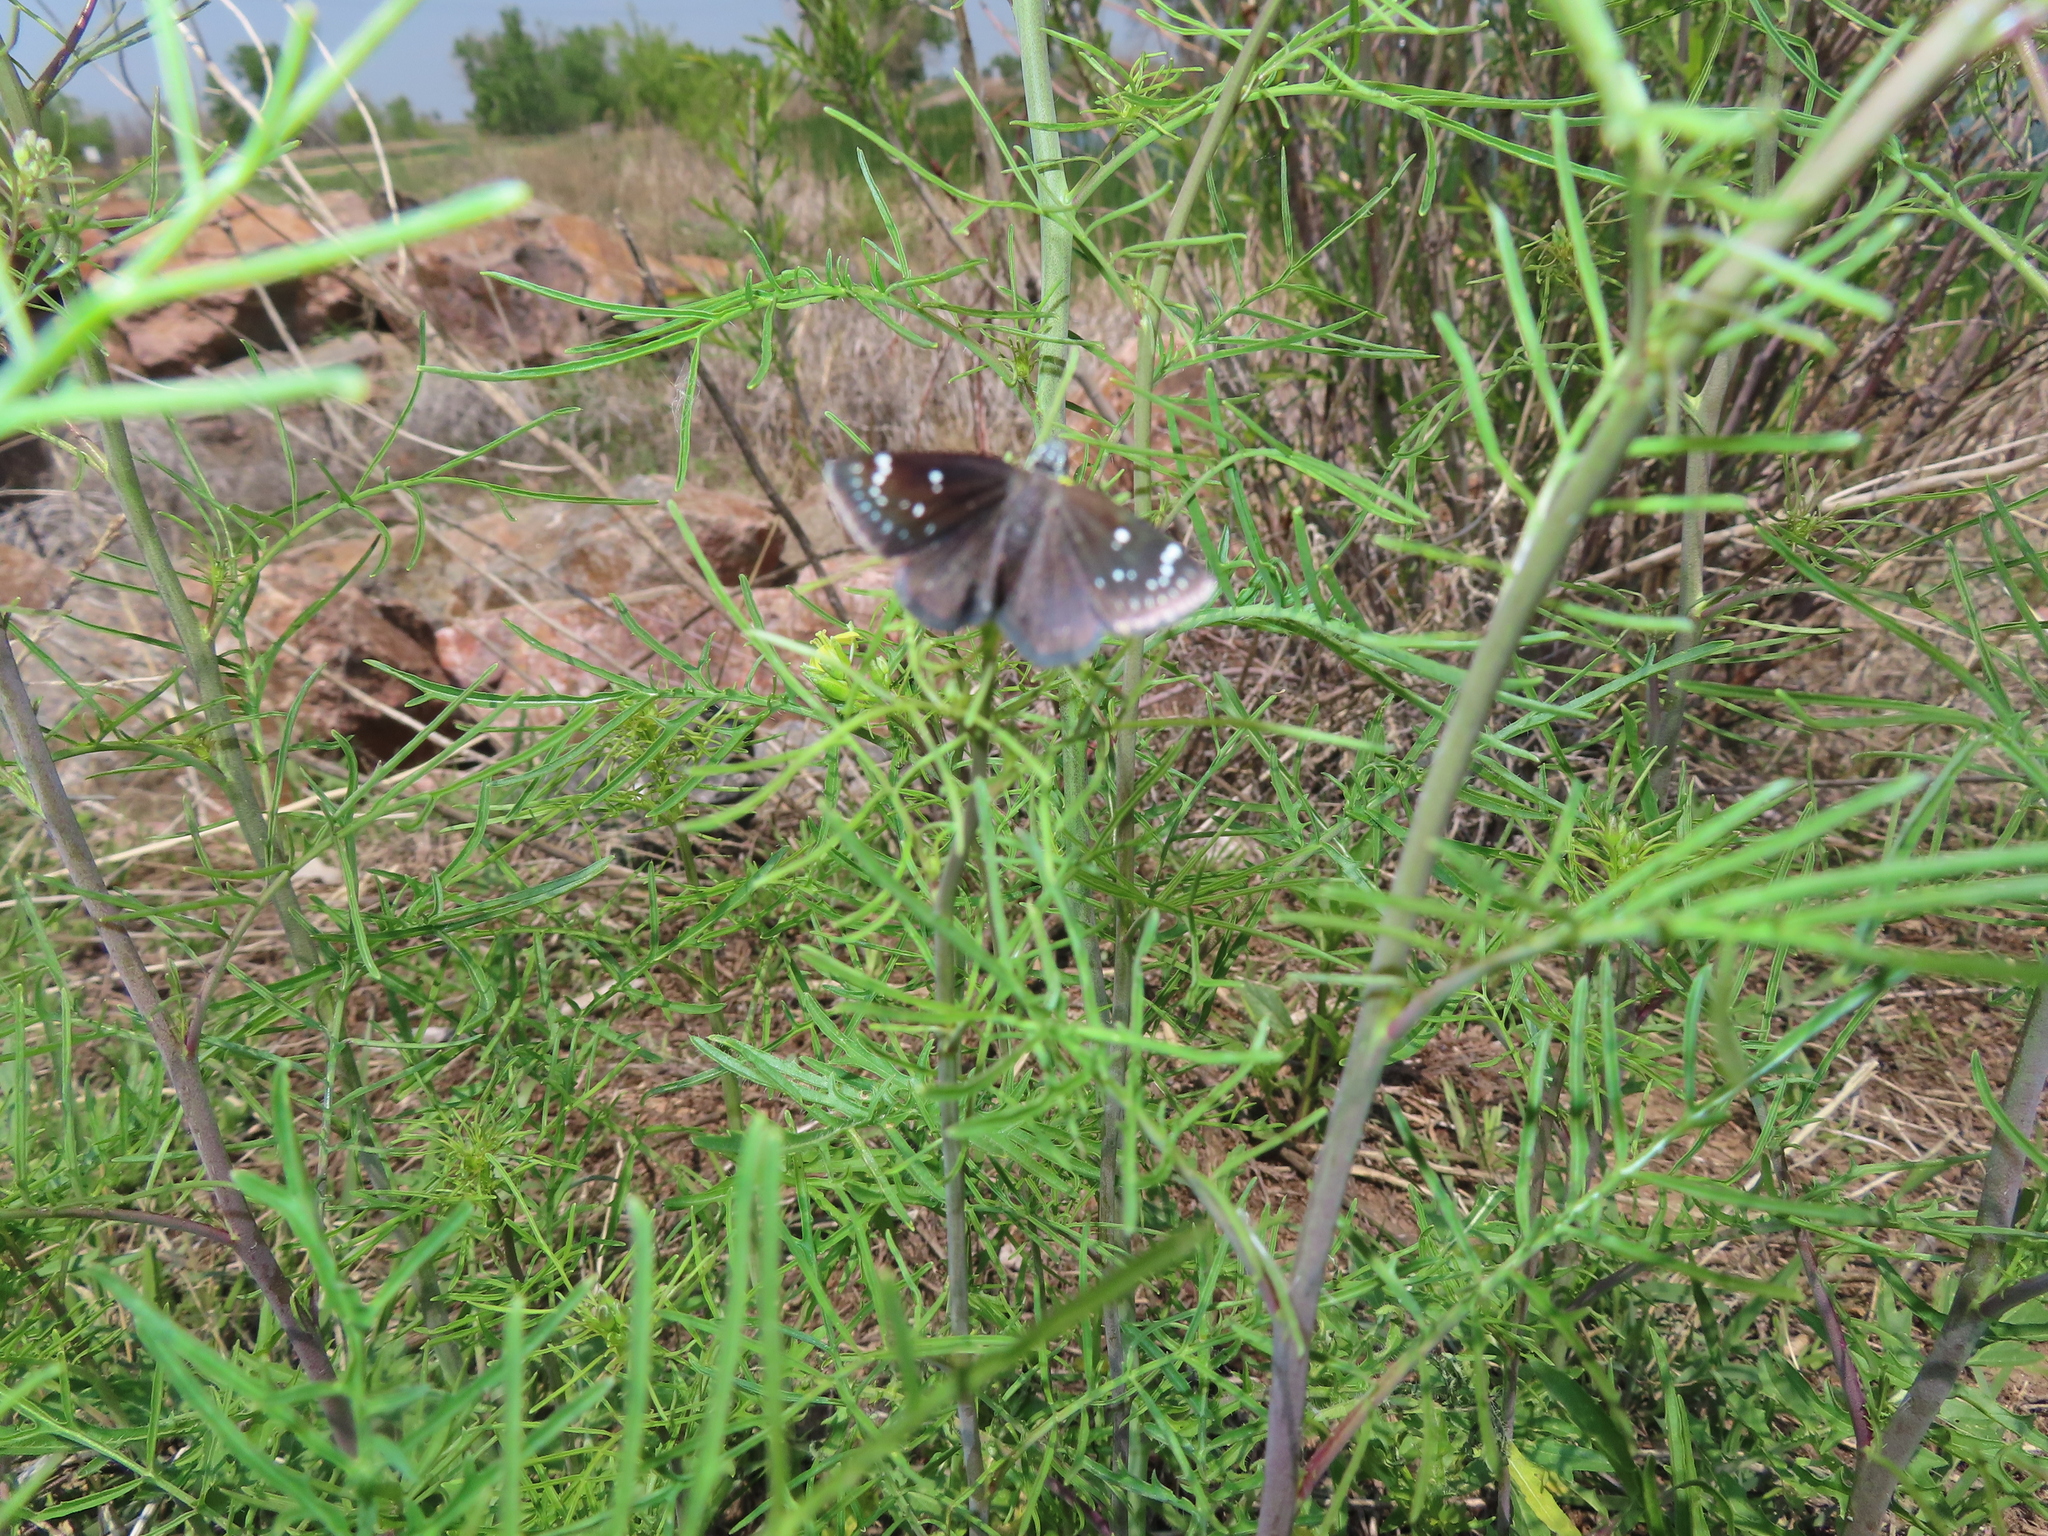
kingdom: Animalia
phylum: Arthropoda
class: Insecta
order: Lepidoptera
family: Hesperiidae
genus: Pholisora
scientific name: Pholisora catullus
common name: Common sootywing
